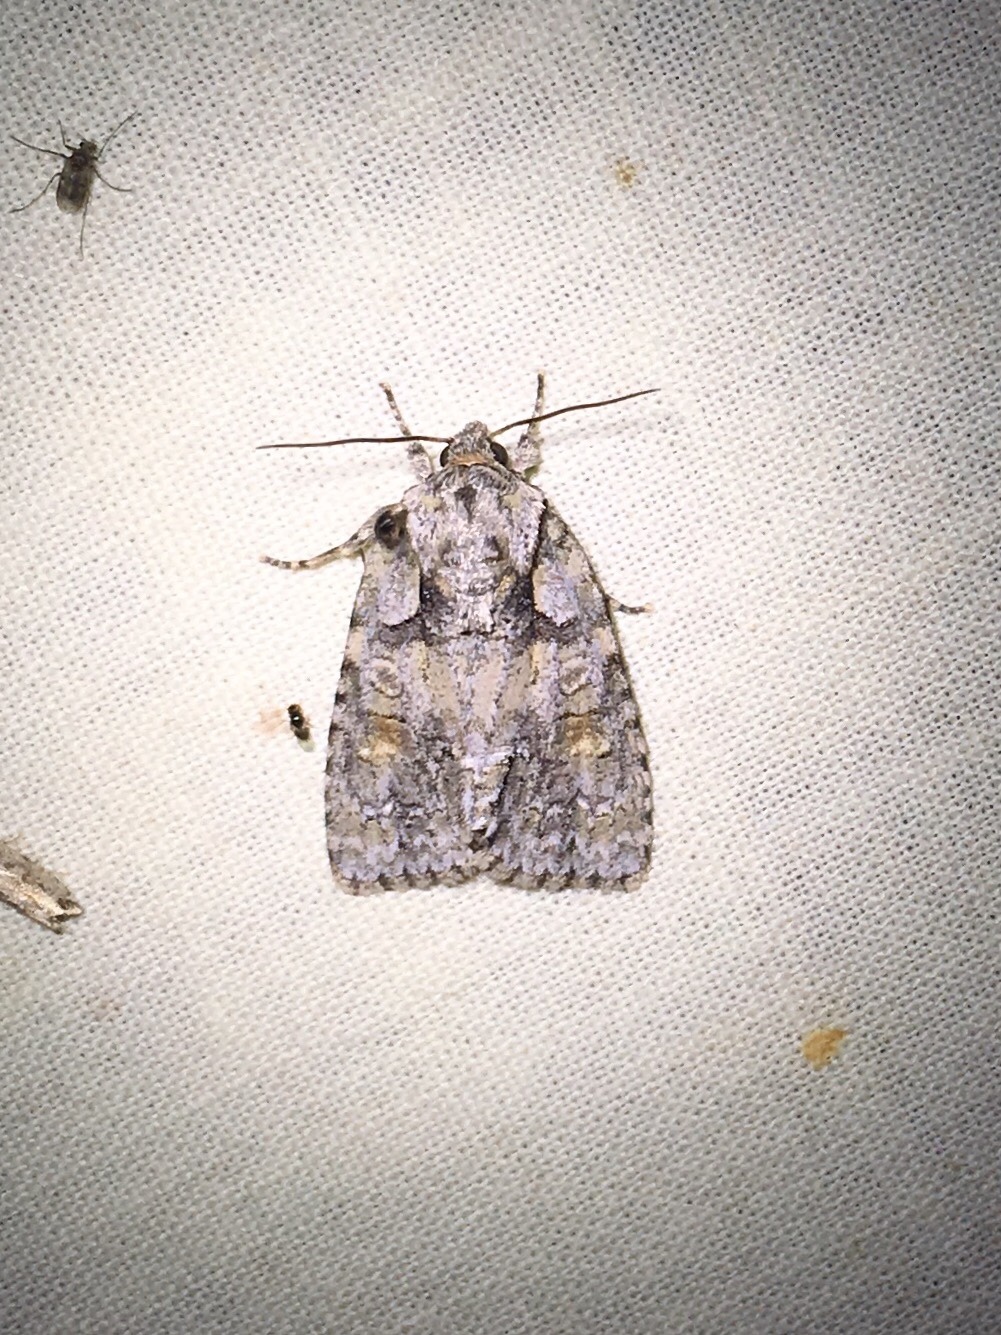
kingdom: Animalia
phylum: Arthropoda
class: Insecta
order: Lepidoptera
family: Noctuidae
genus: Acronicta
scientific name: Acronicta ovata
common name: Epauleted oak dagger
